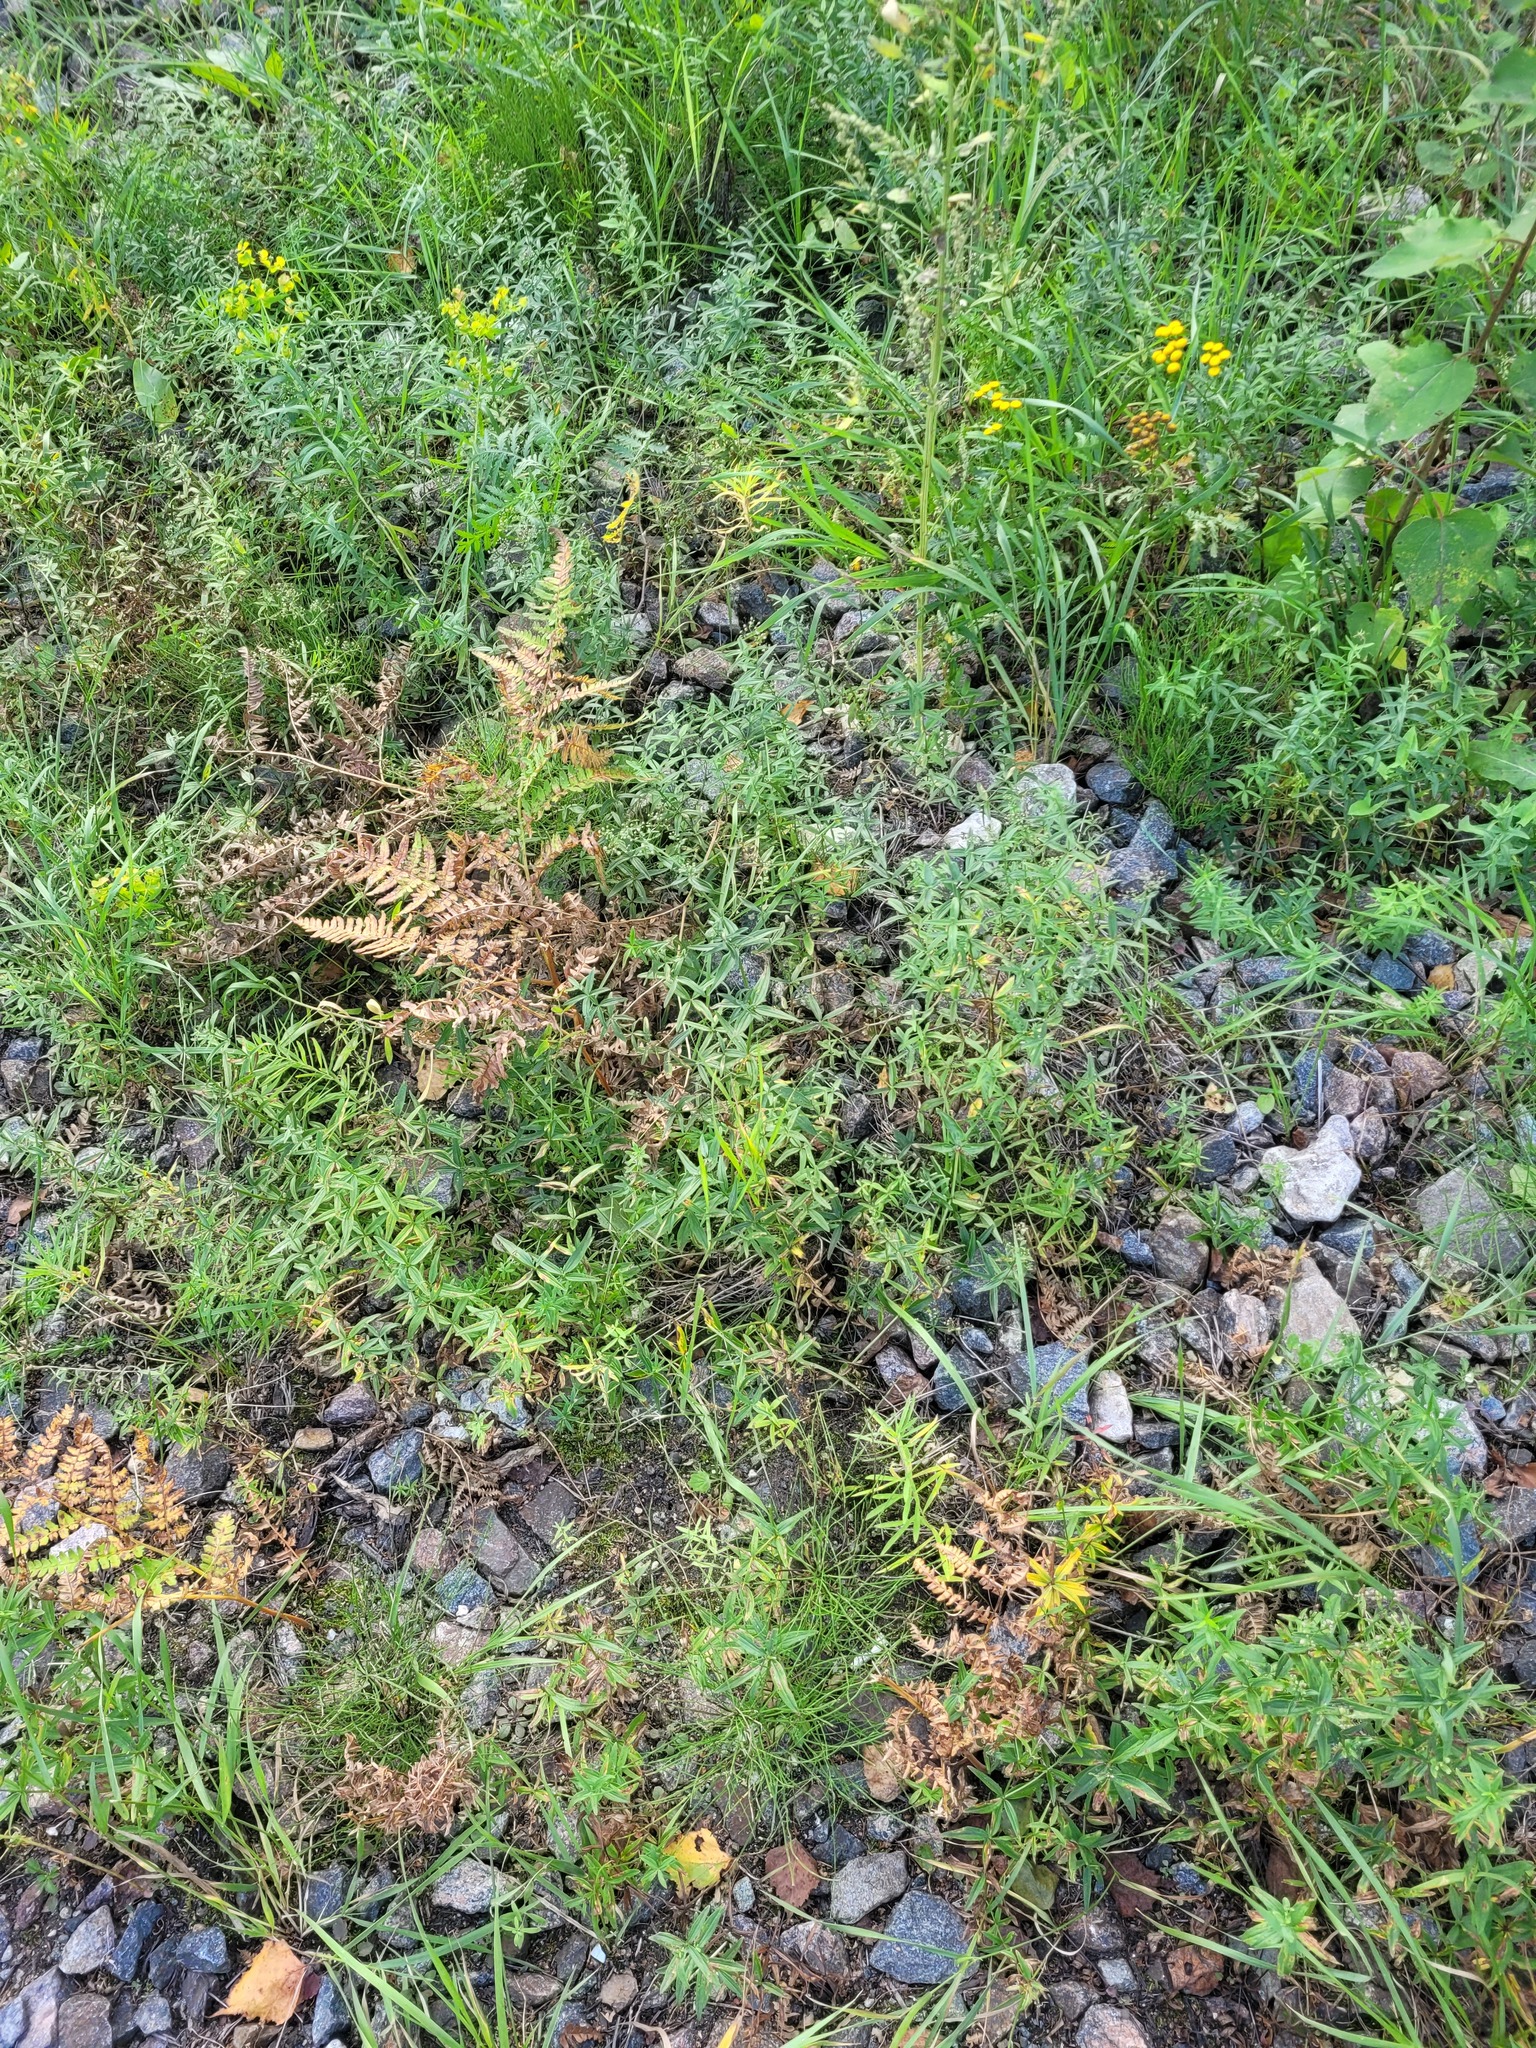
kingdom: Plantae
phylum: Tracheophyta
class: Magnoliopsida
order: Gentianales
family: Rubiaceae
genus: Galium
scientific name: Galium rubioides
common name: European bedstraw
